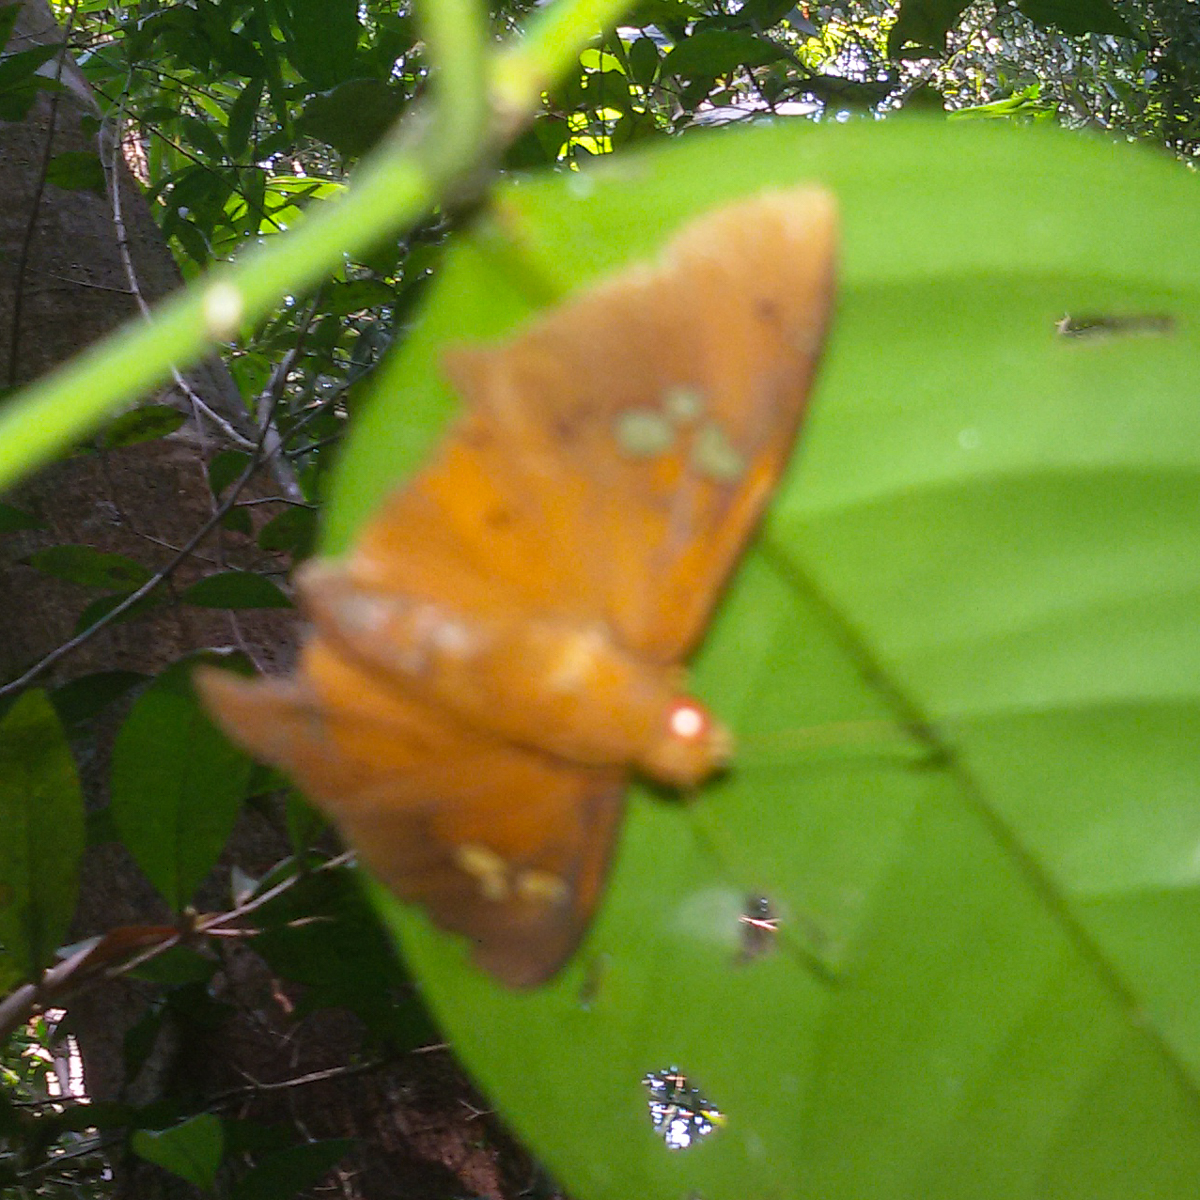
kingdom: Animalia
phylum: Arthropoda
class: Insecta
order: Lepidoptera
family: Hesperiidae
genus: Capila
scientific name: Capila phanaeus
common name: Fulvous dawnfly
